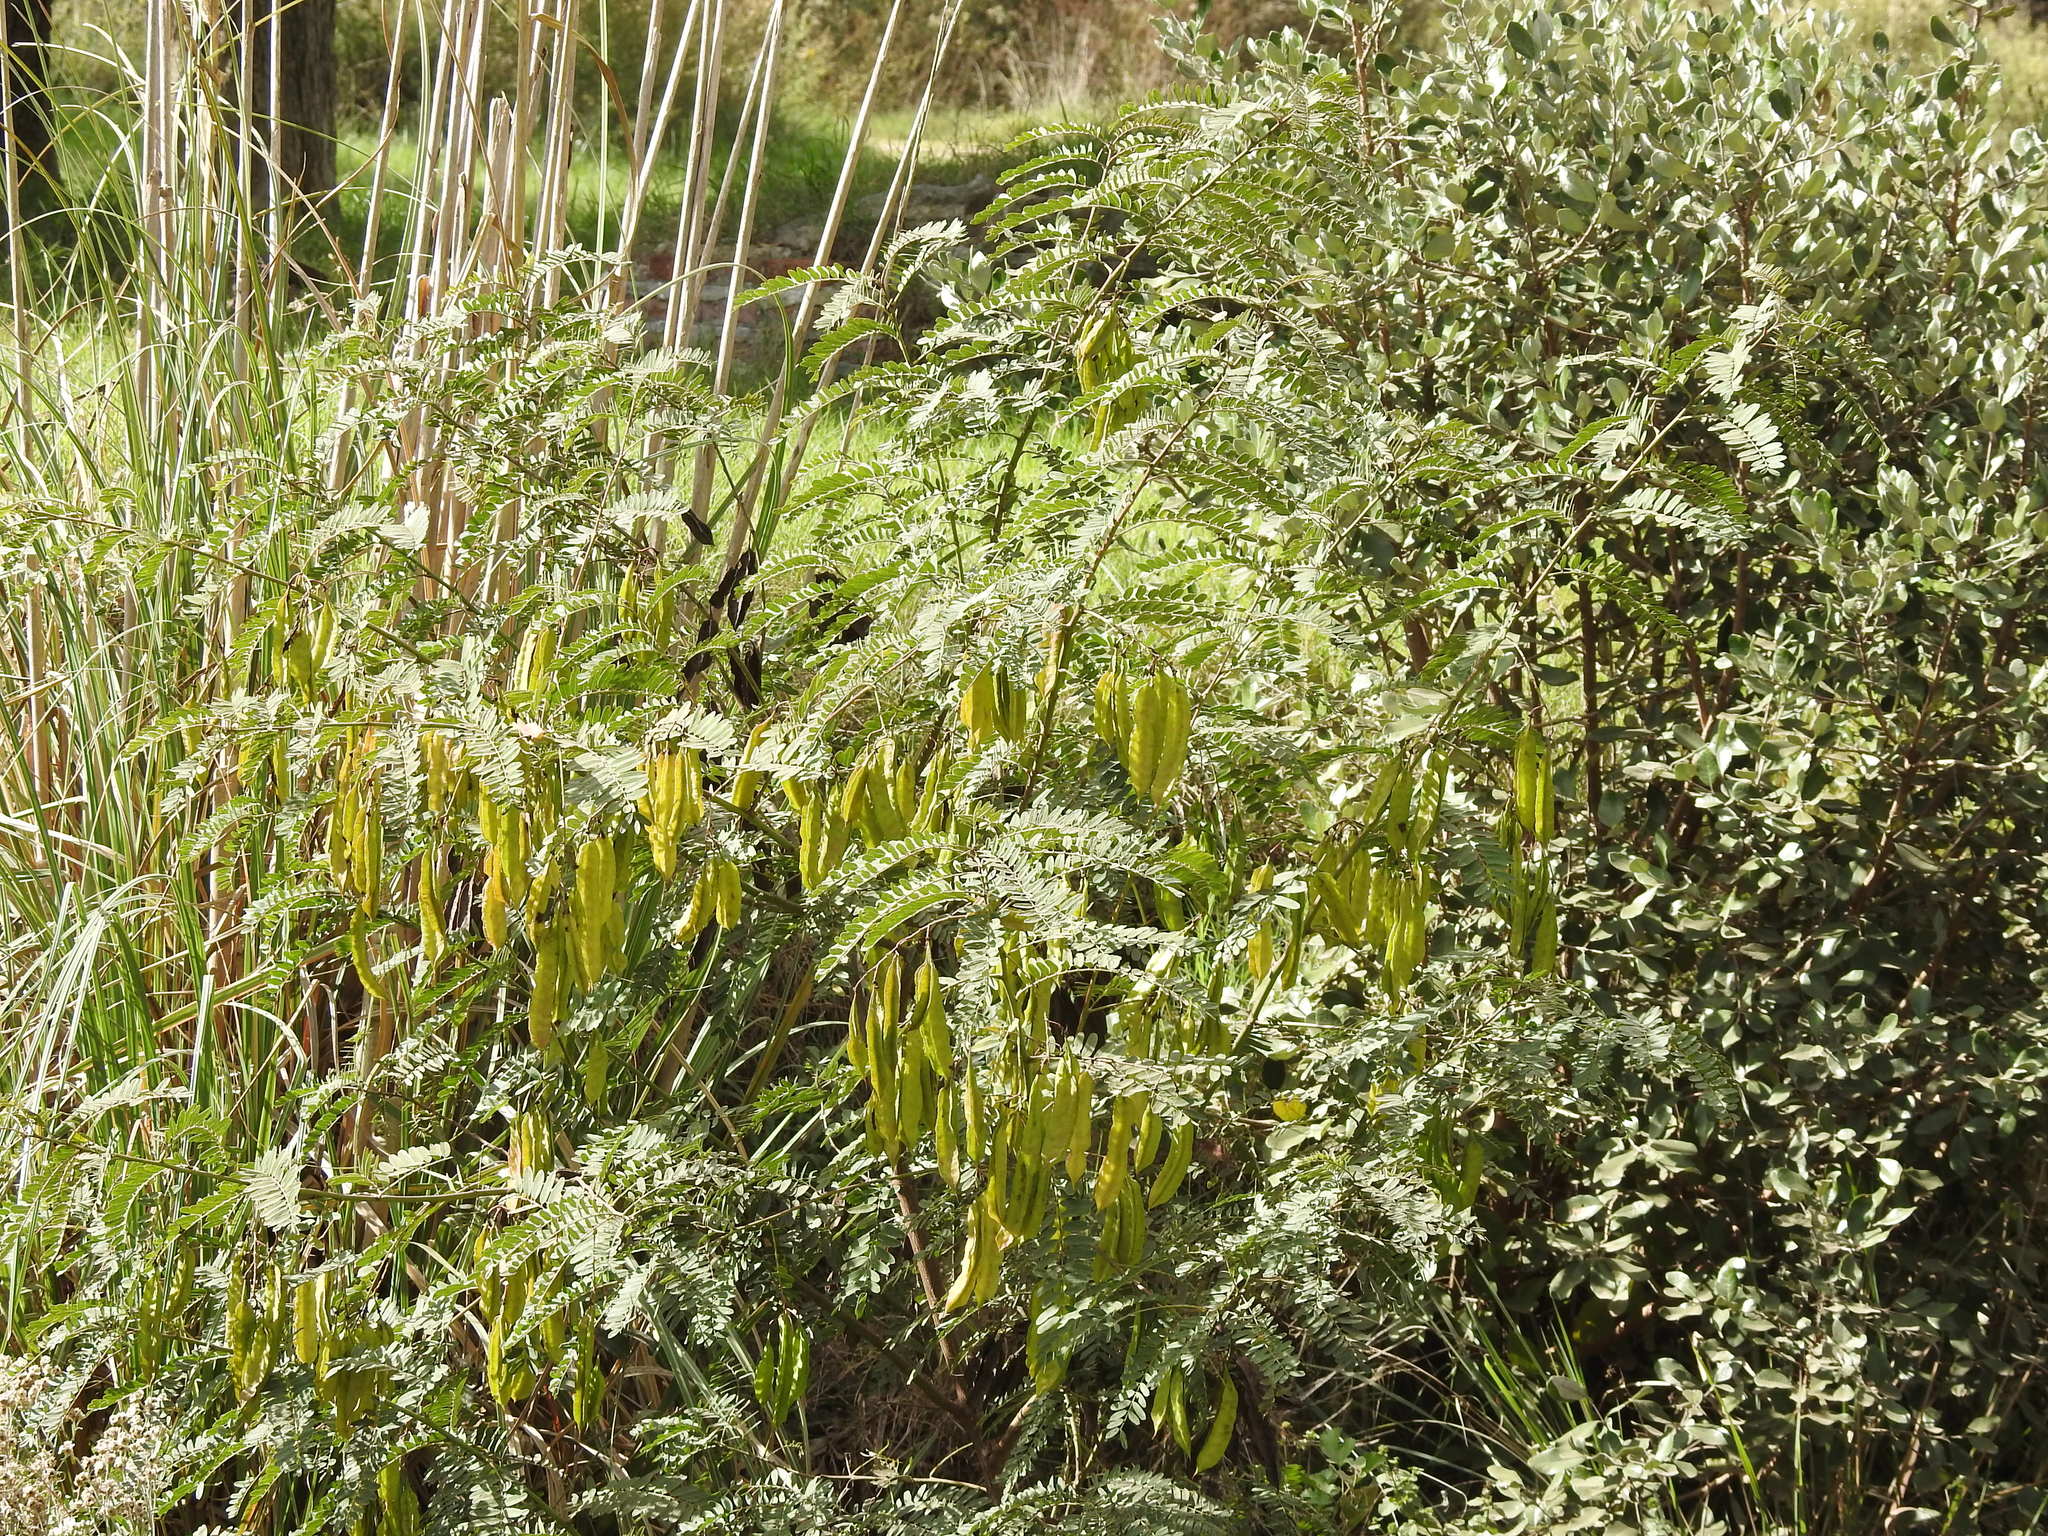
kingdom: Plantae
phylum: Tracheophyta
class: Magnoliopsida
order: Fabales
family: Fabaceae
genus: Sesbania
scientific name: Sesbania punicea
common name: Rattlebox
